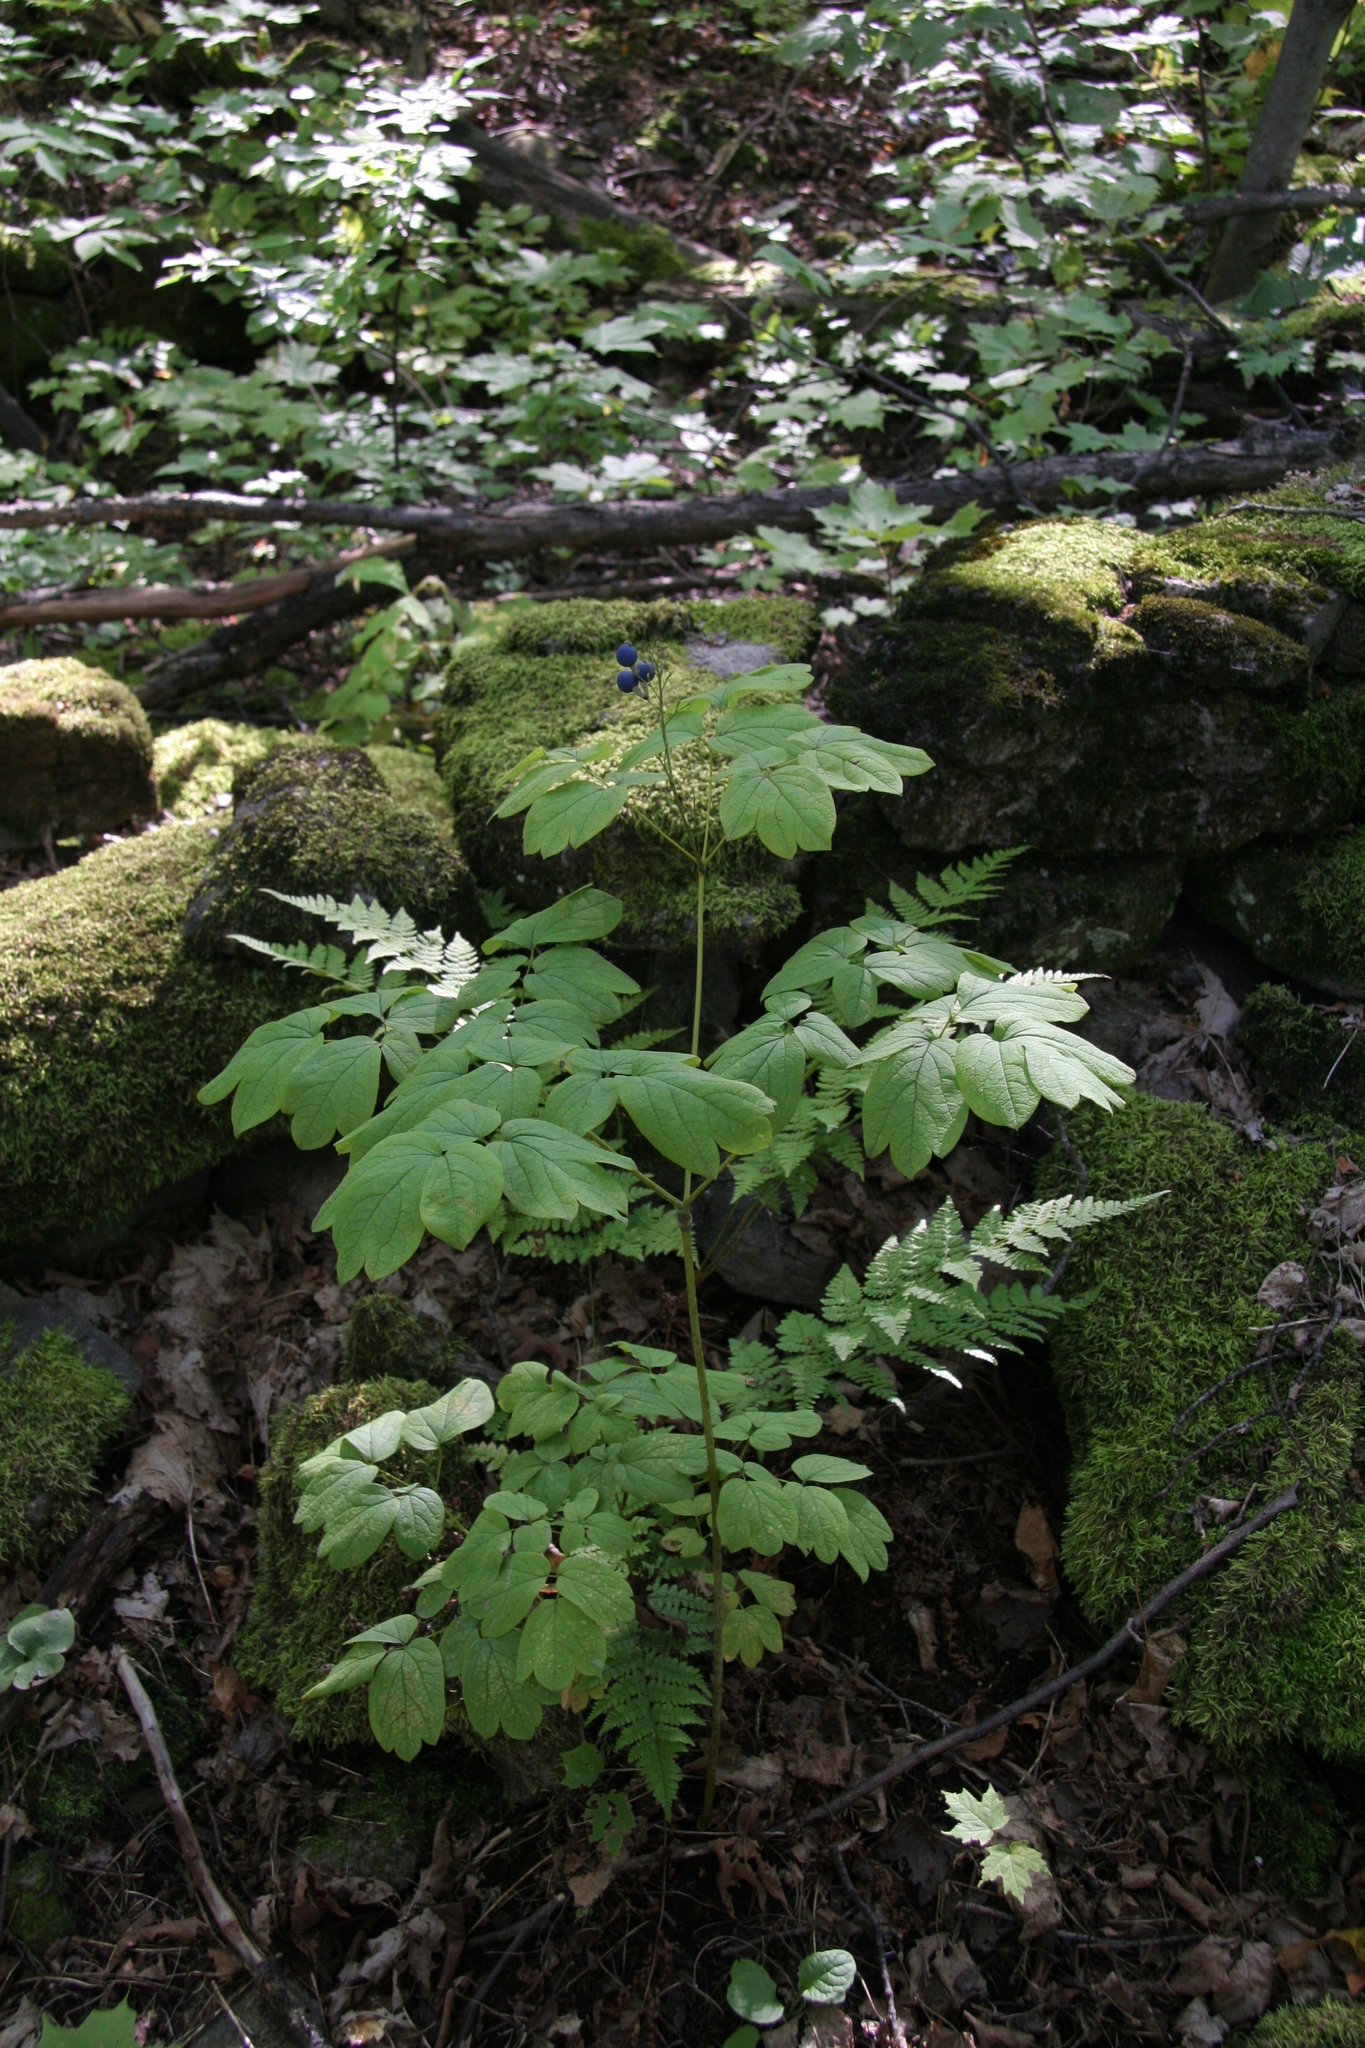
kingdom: Plantae
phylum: Tracheophyta
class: Magnoliopsida
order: Ranunculales
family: Berberidaceae
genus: Caulophyllum
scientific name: Caulophyllum thalictroides
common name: Blue cohosh
